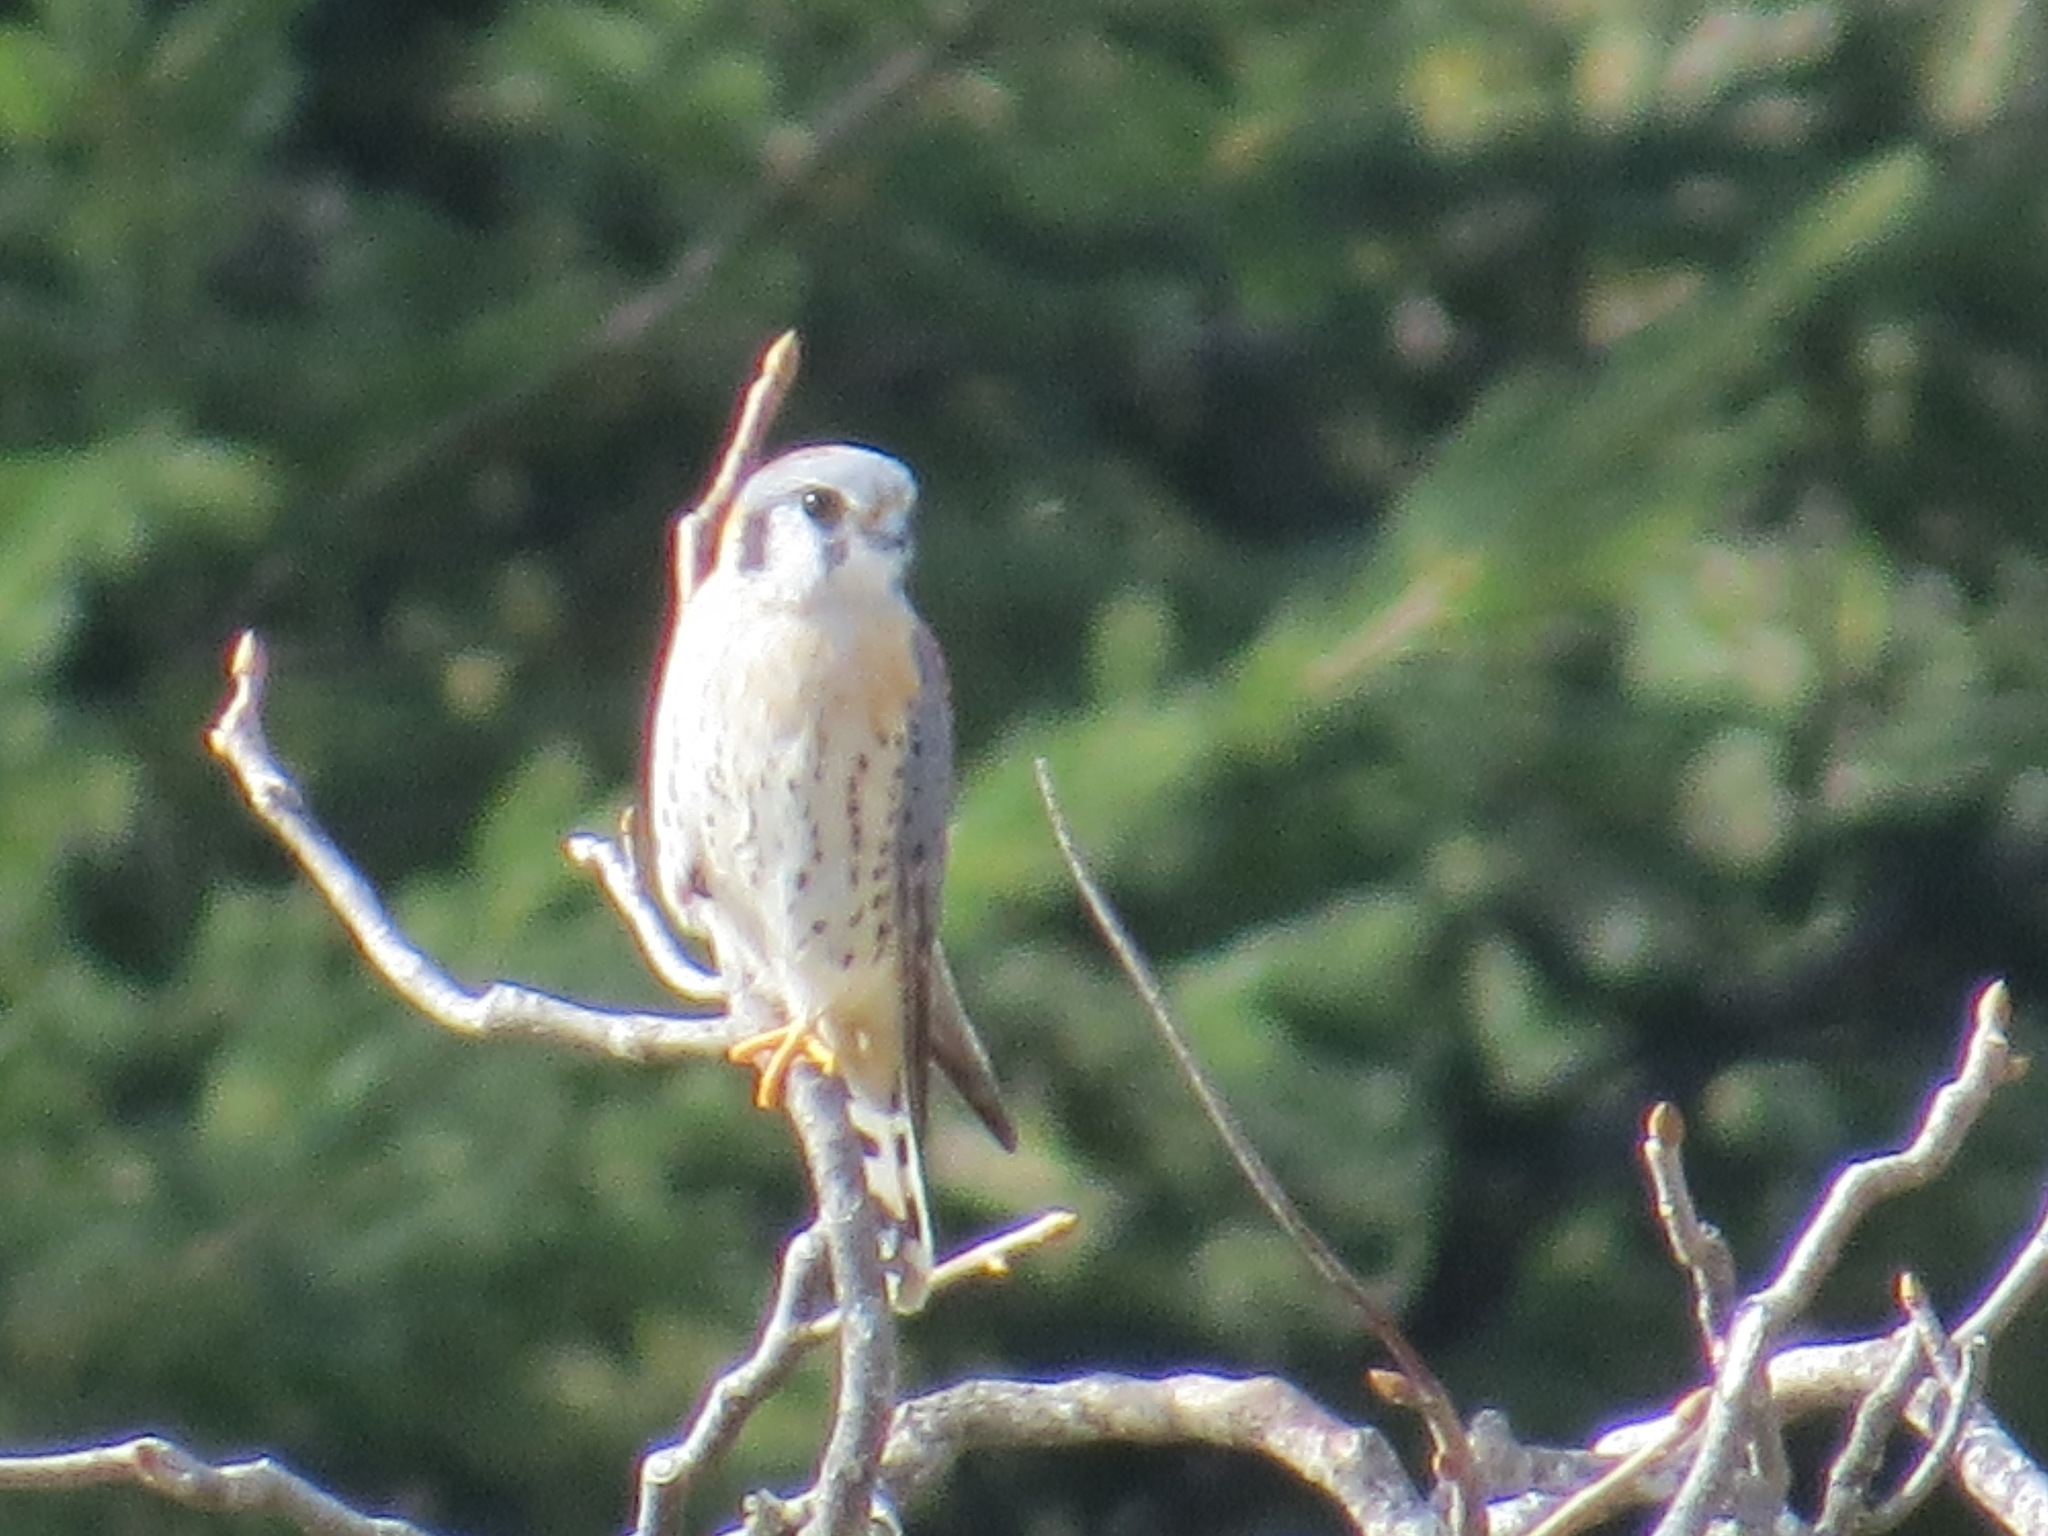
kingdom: Animalia
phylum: Chordata
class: Aves
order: Falconiformes
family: Falconidae
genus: Falco
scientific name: Falco sparverius
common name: American kestrel
